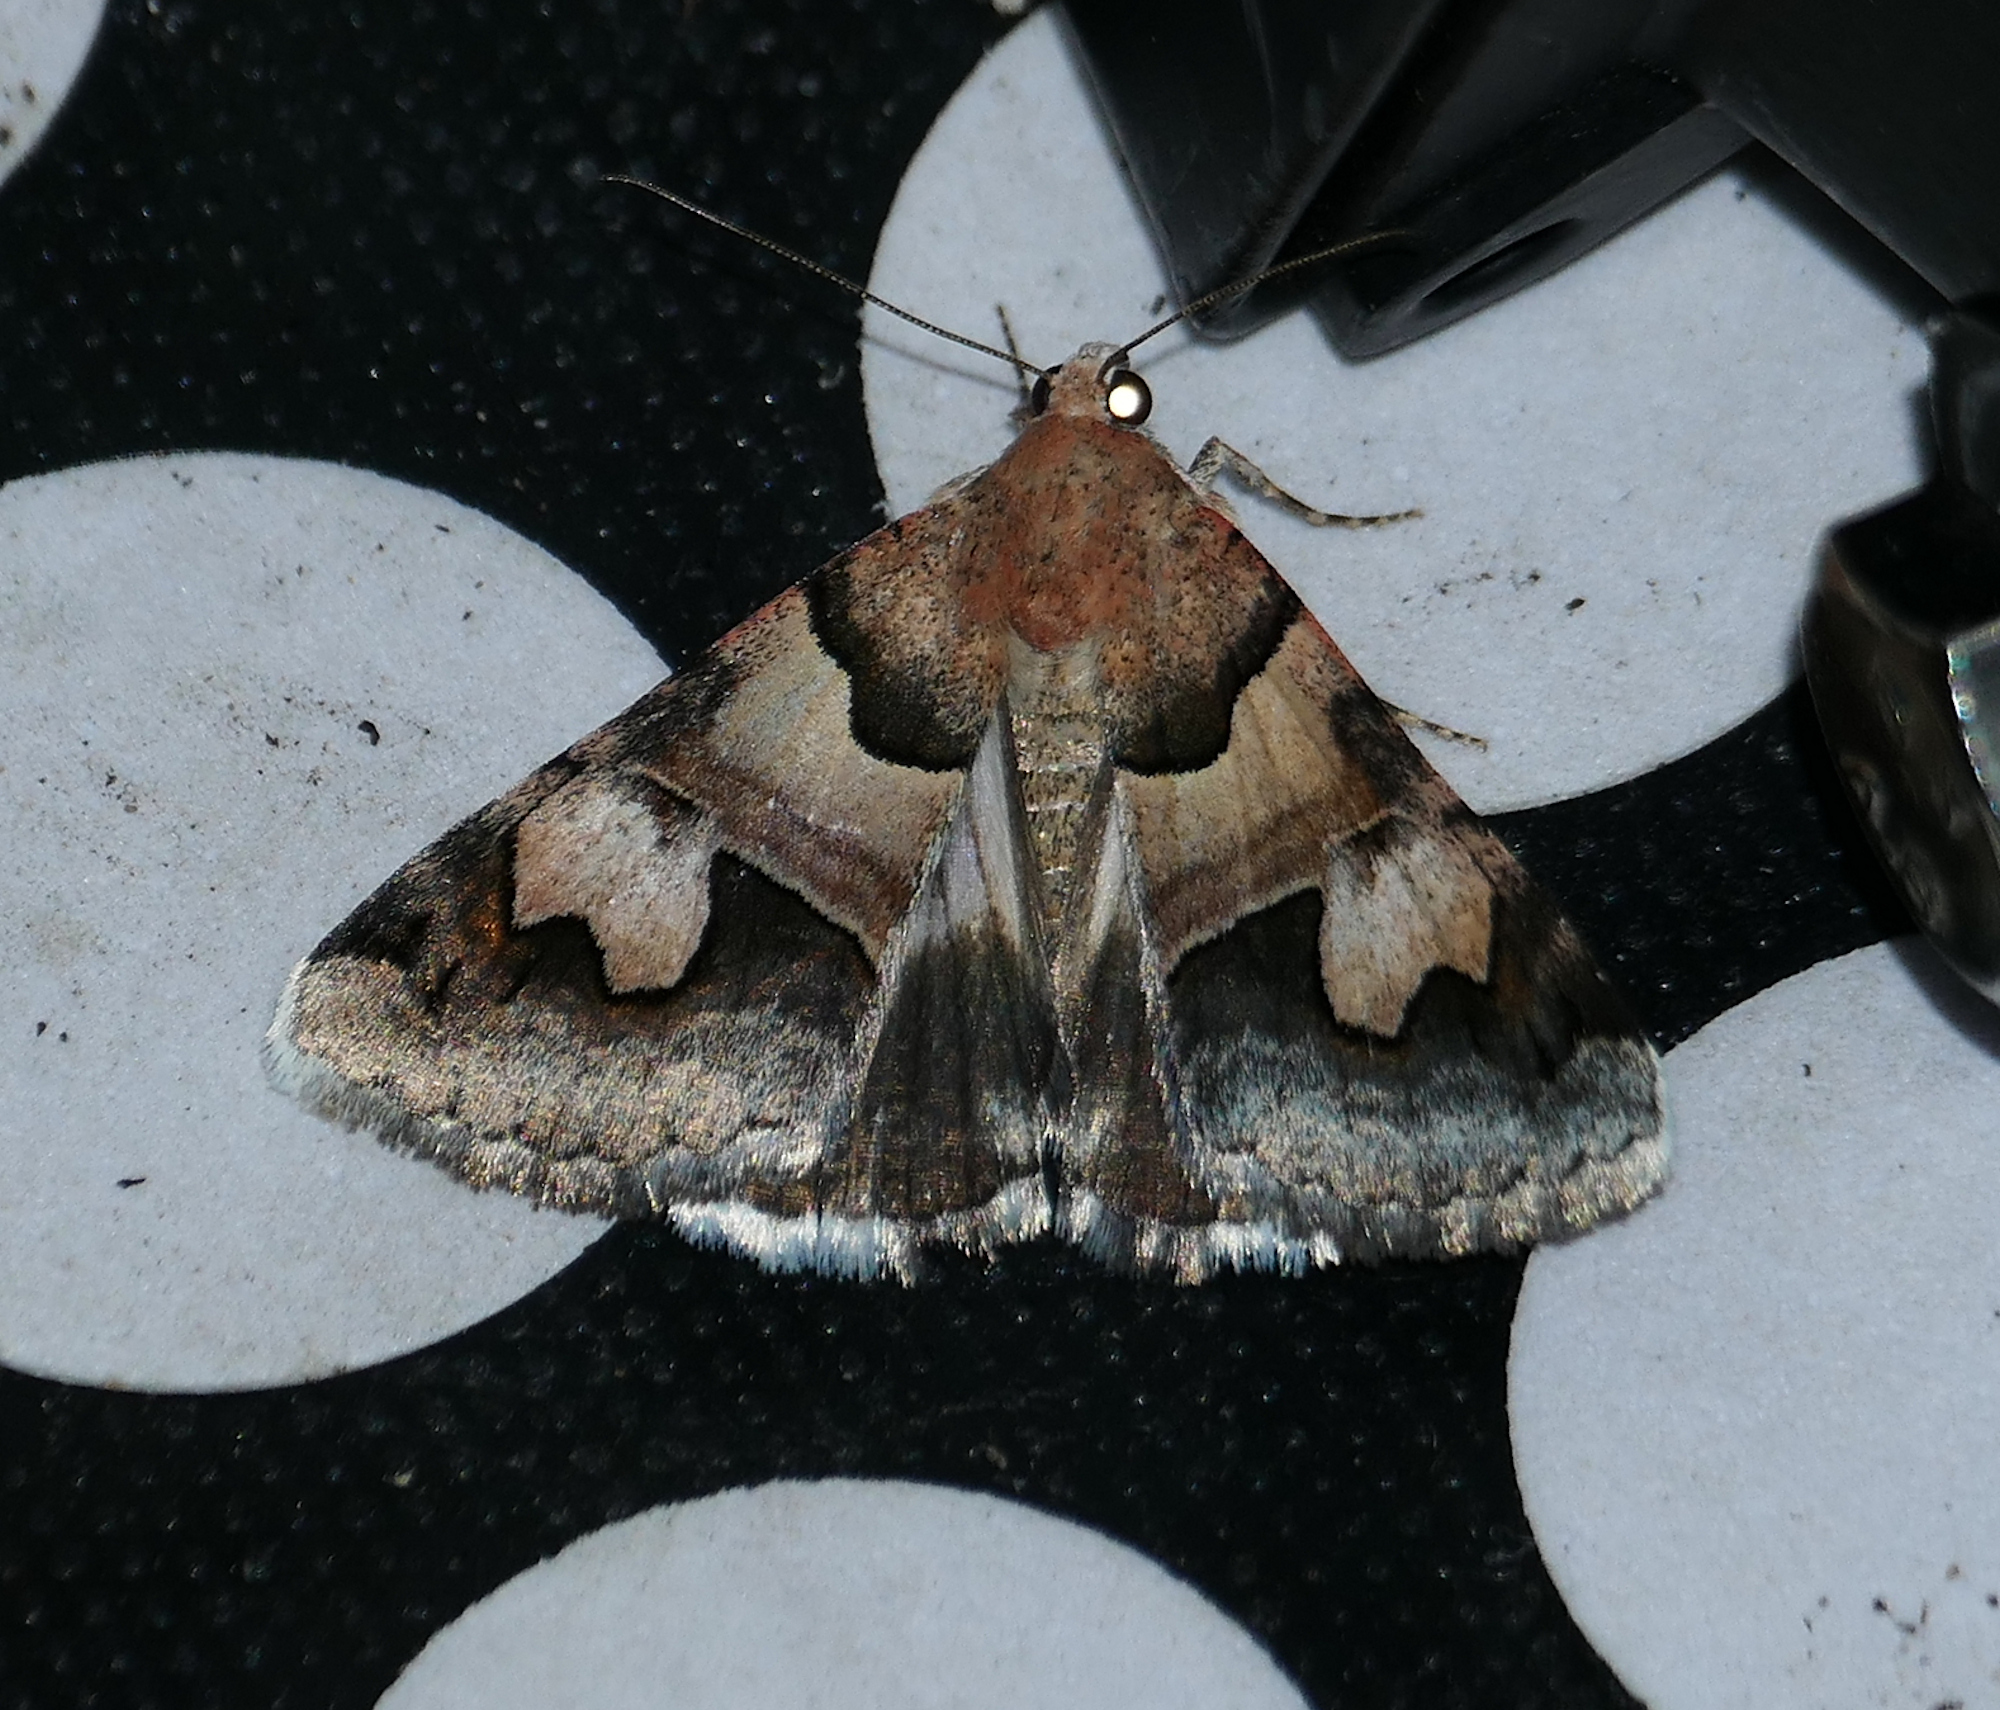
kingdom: Animalia
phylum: Arthropoda
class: Insecta
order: Lepidoptera
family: Erebidae
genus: Drasteria
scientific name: Drasteria pallescens
